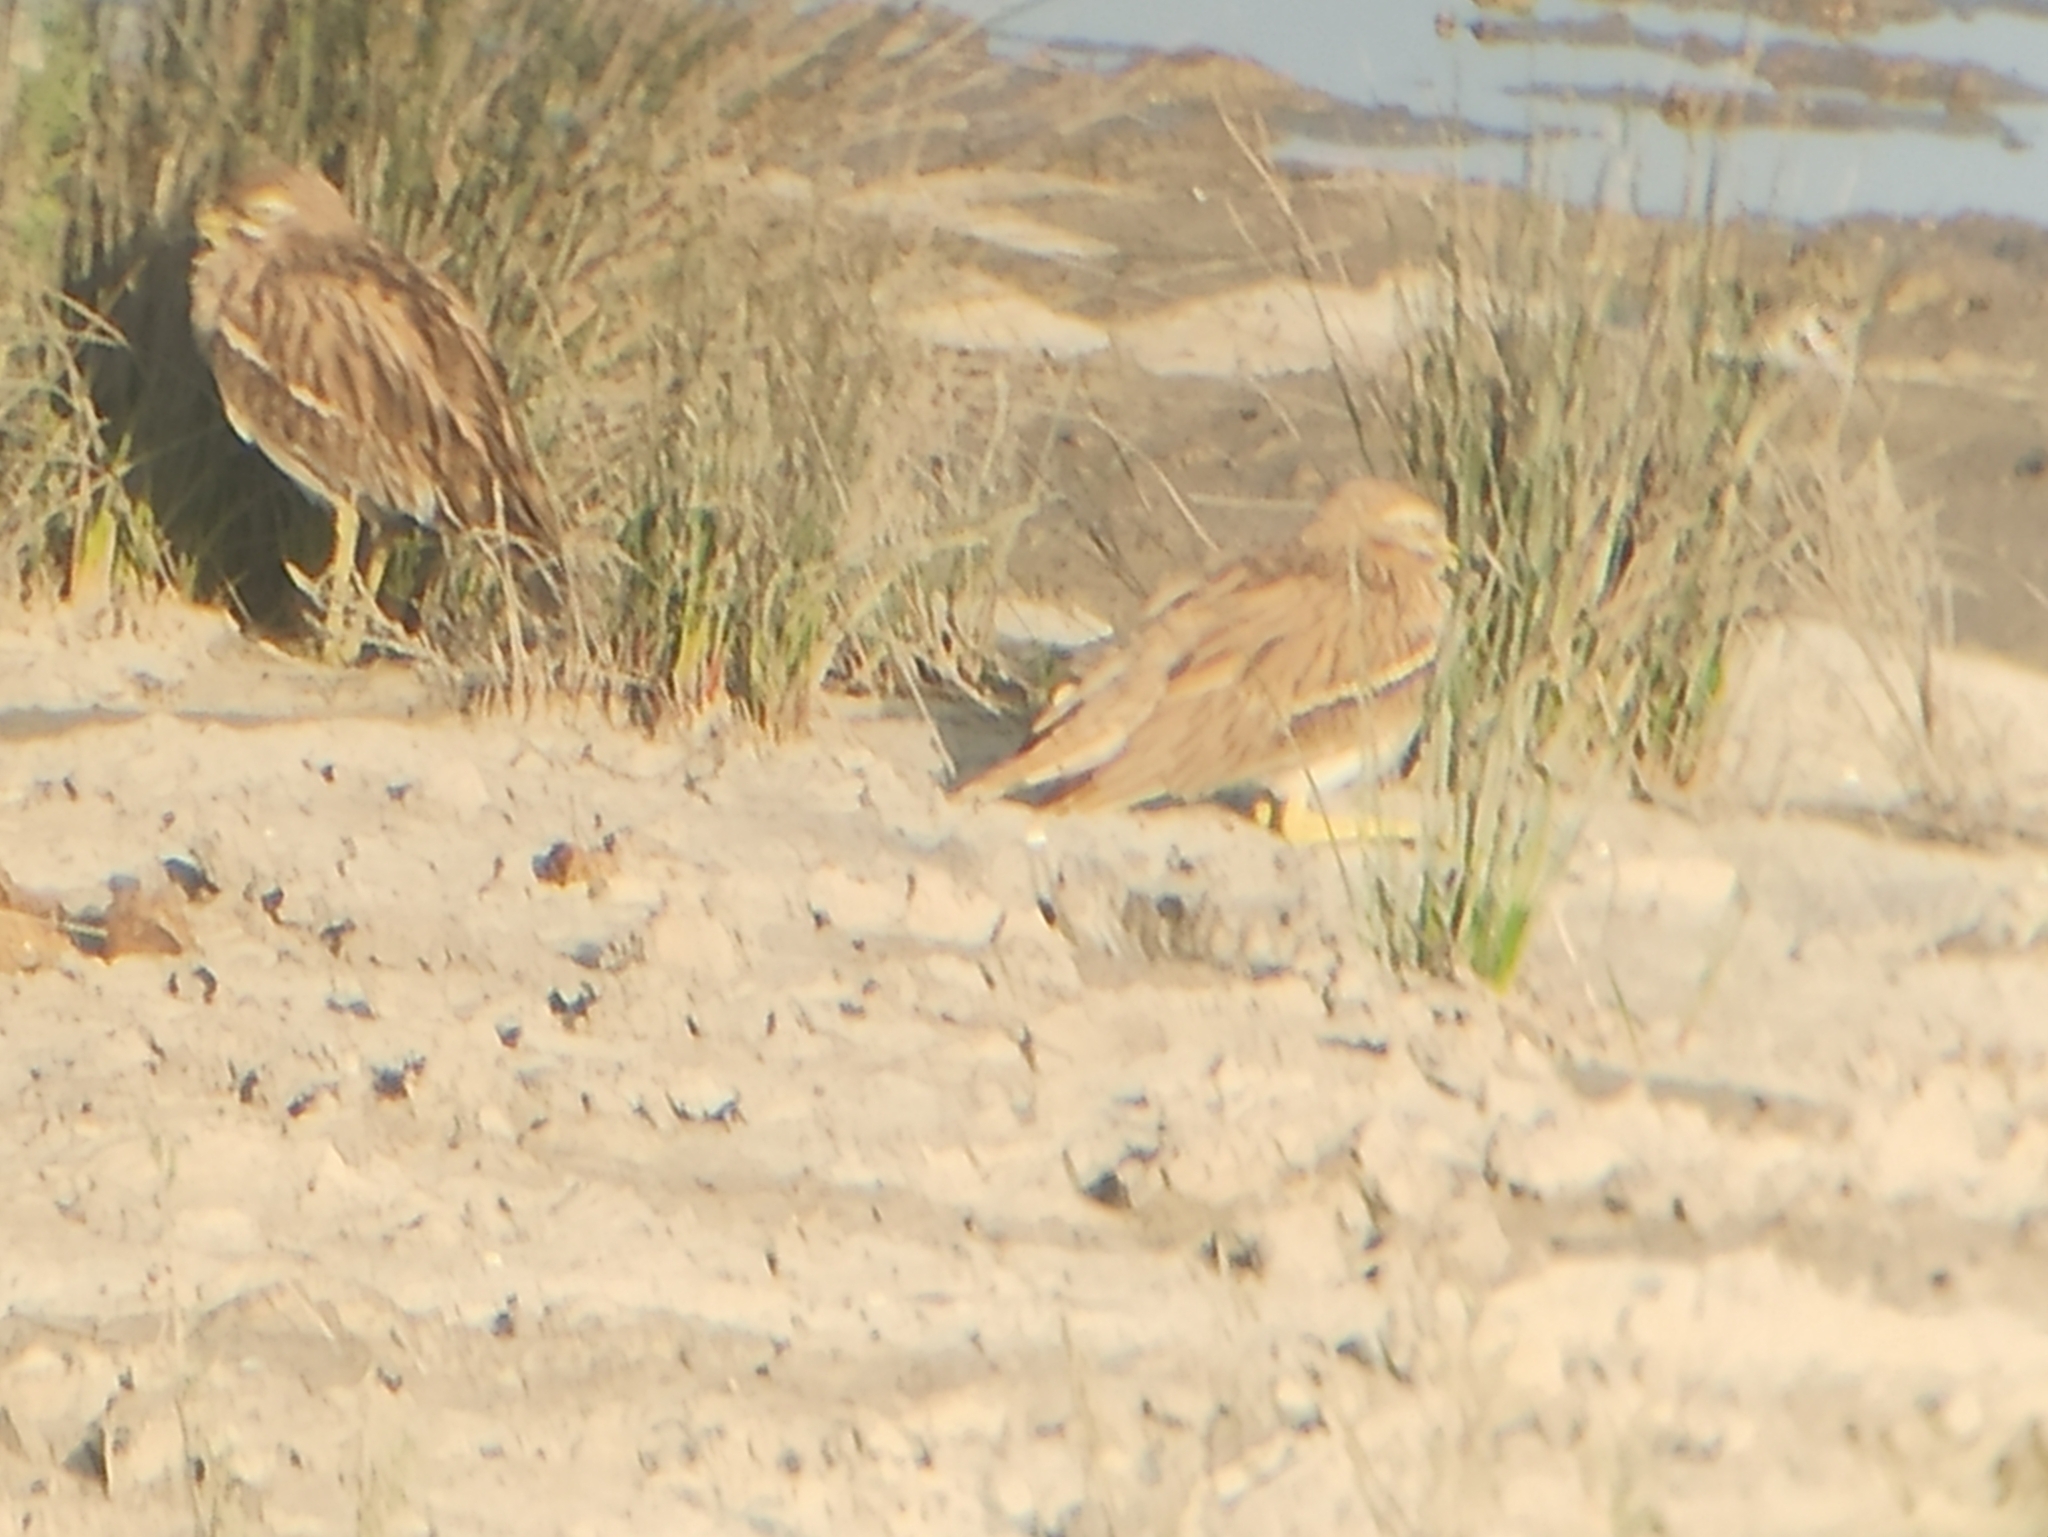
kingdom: Animalia
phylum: Chordata
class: Aves
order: Charadriiformes
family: Burhinidae
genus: Burhinus
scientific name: Burhinus oedicnemus
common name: Eurasian stone-curlew
